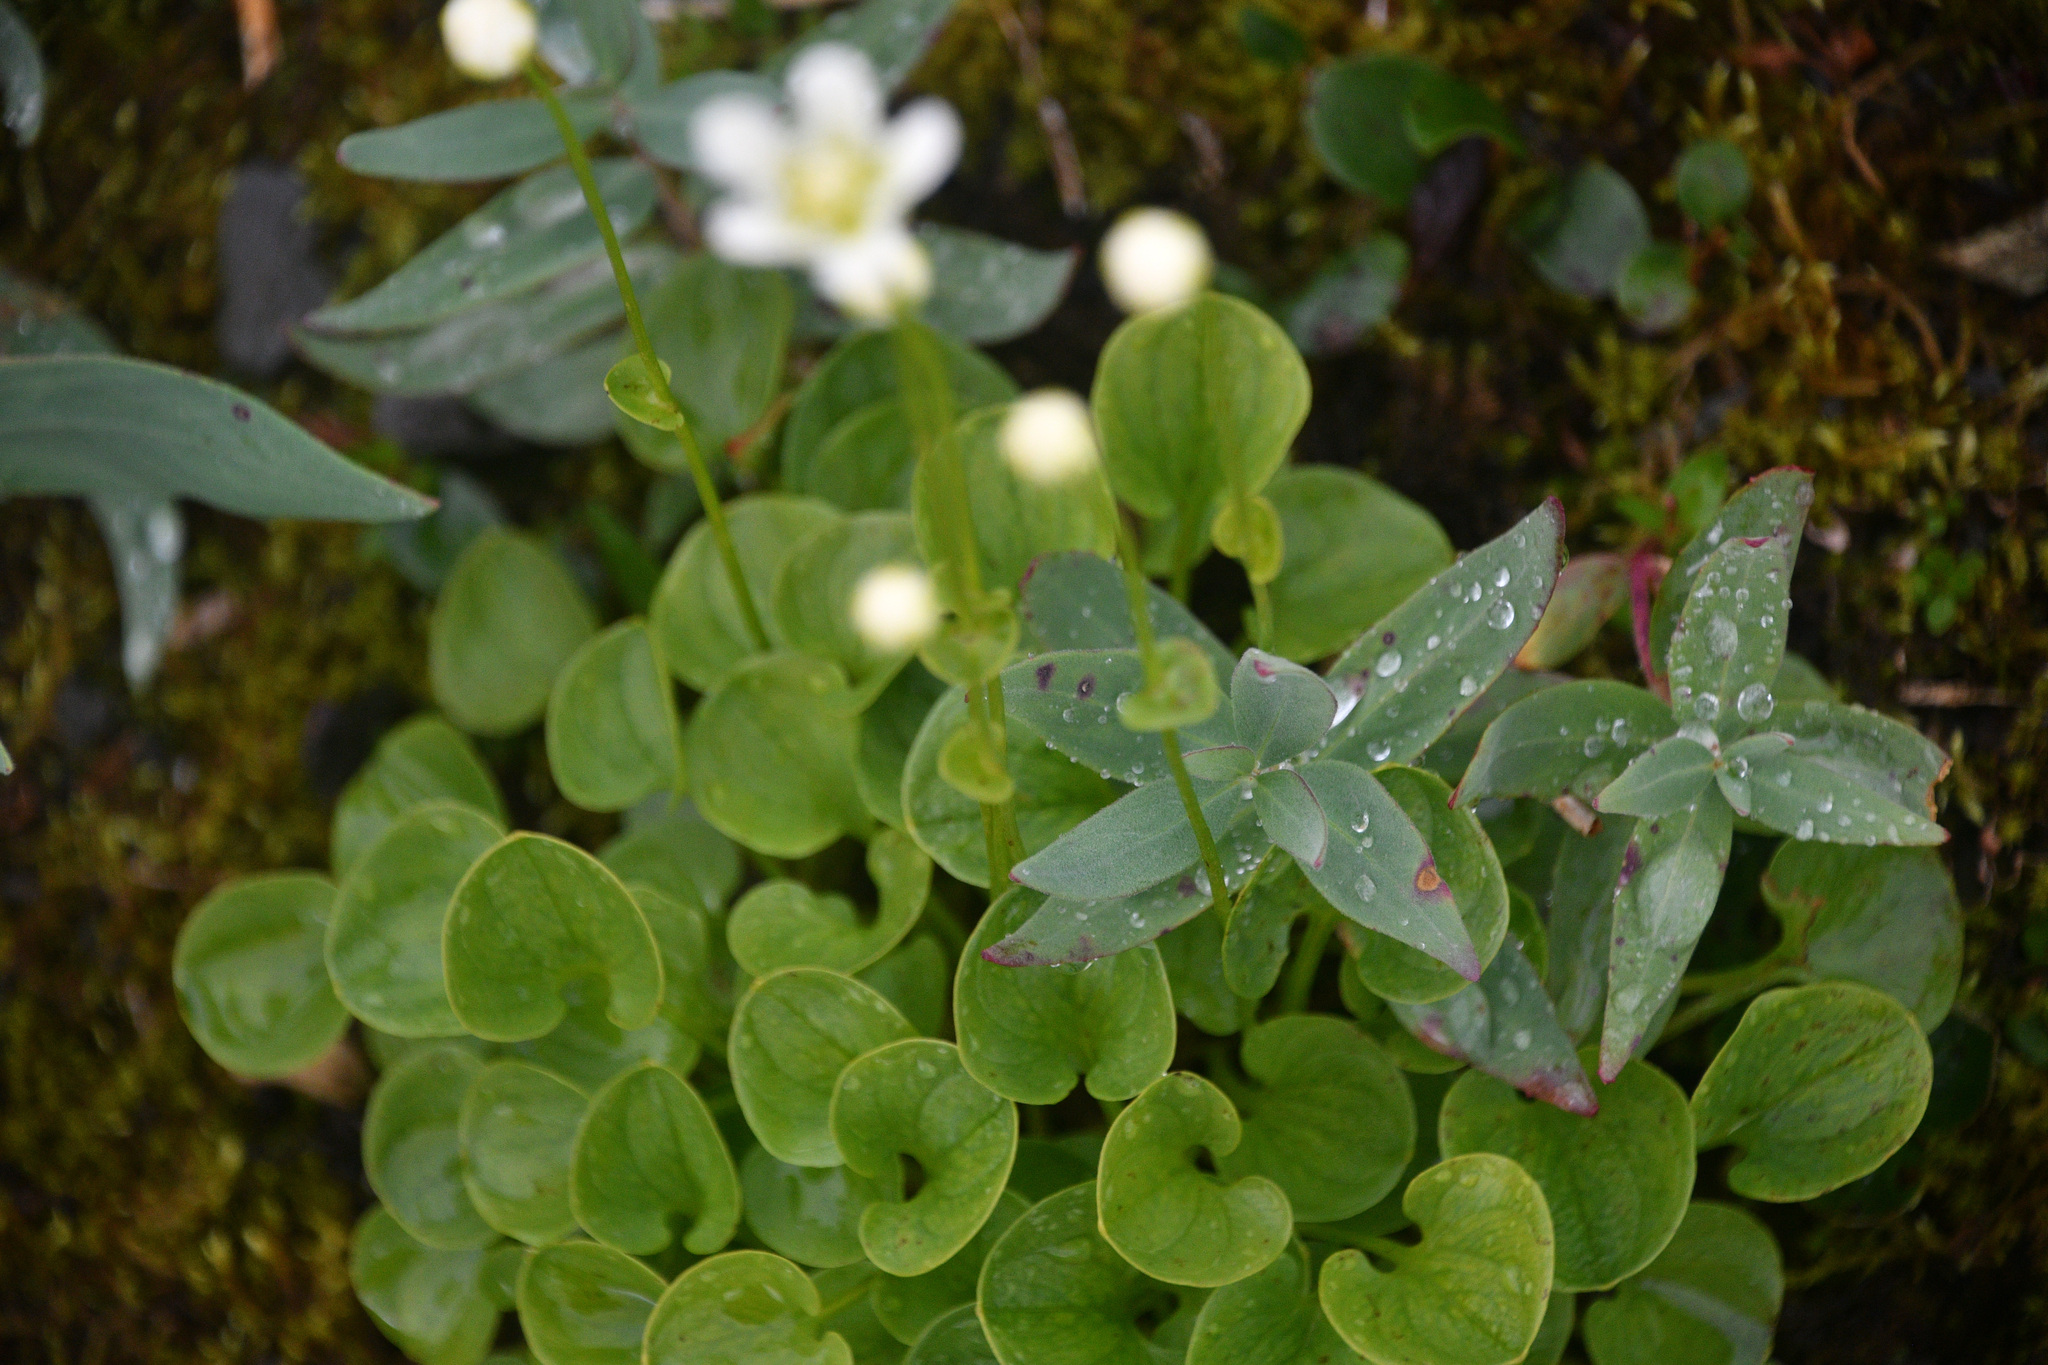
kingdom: Plantae
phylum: Tracheophyta
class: Magnoliopsida
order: Celastrales
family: Parnassiaceae
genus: Parnassia
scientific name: Parnassia fimbriata
